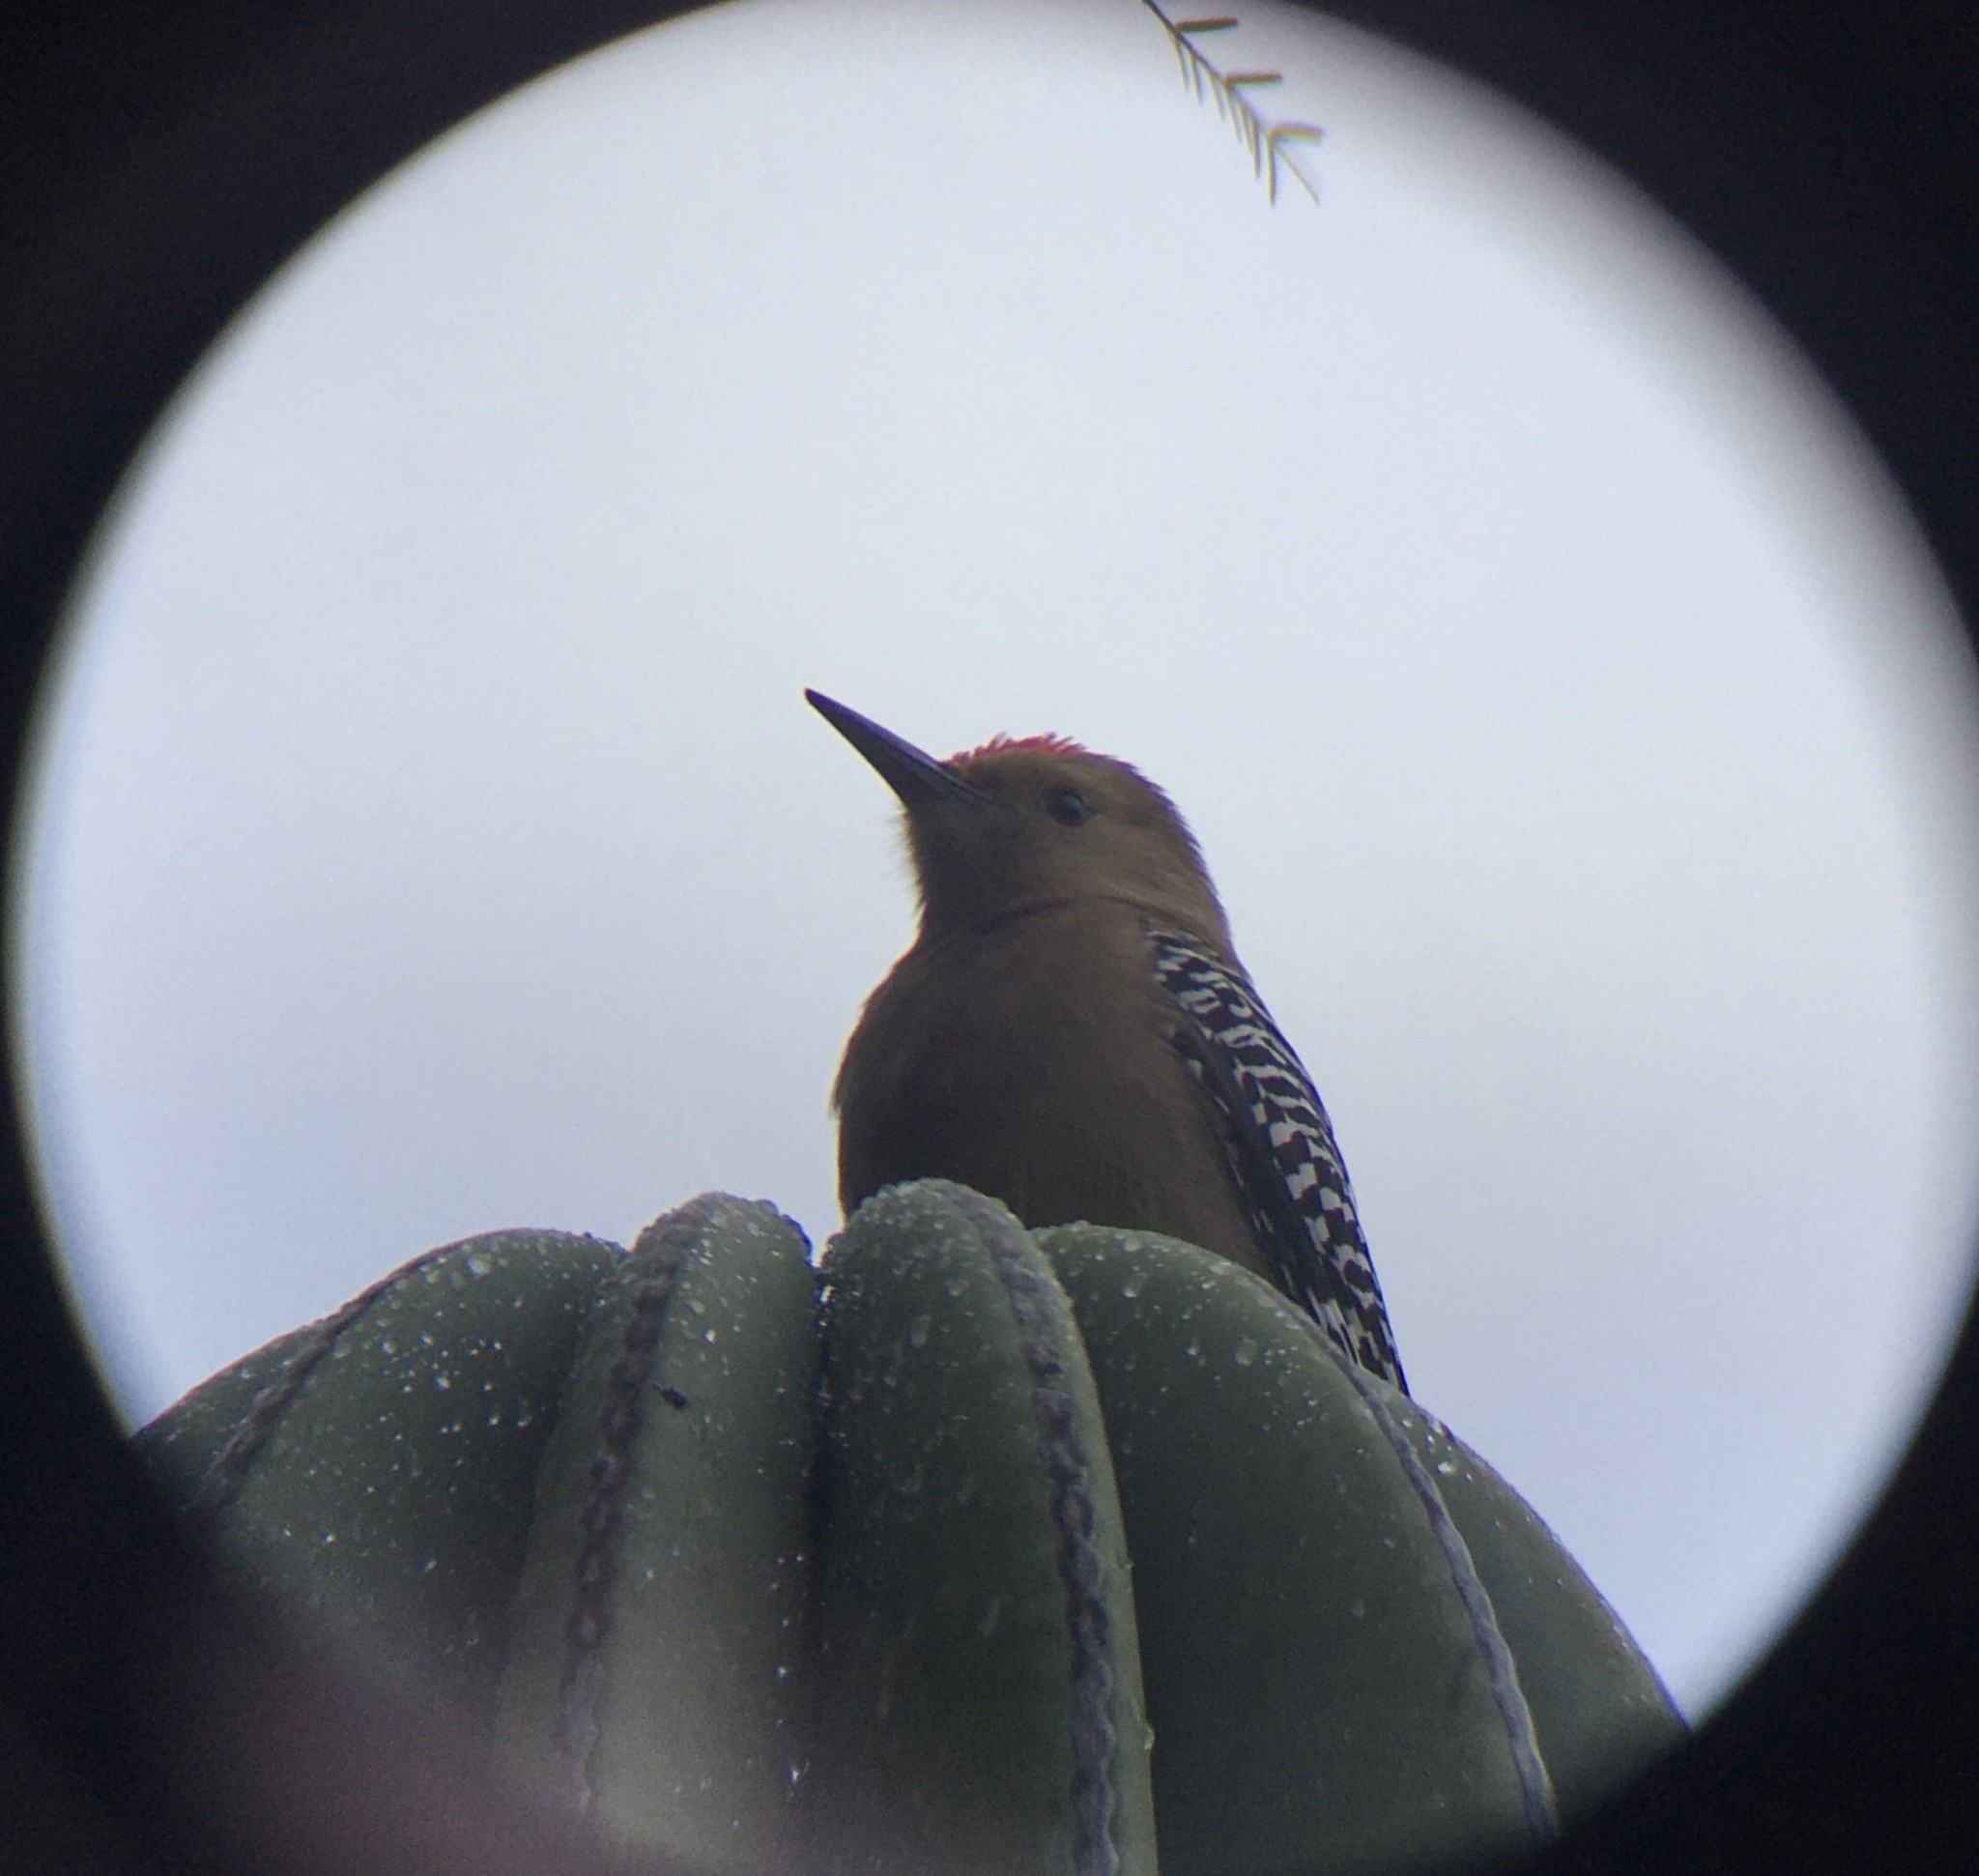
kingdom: Animalia
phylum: Chordata
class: Aves
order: Piciformes
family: Picidae
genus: Melanerpes
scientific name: Melanerpes uropygialis
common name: Gila woodpecker
